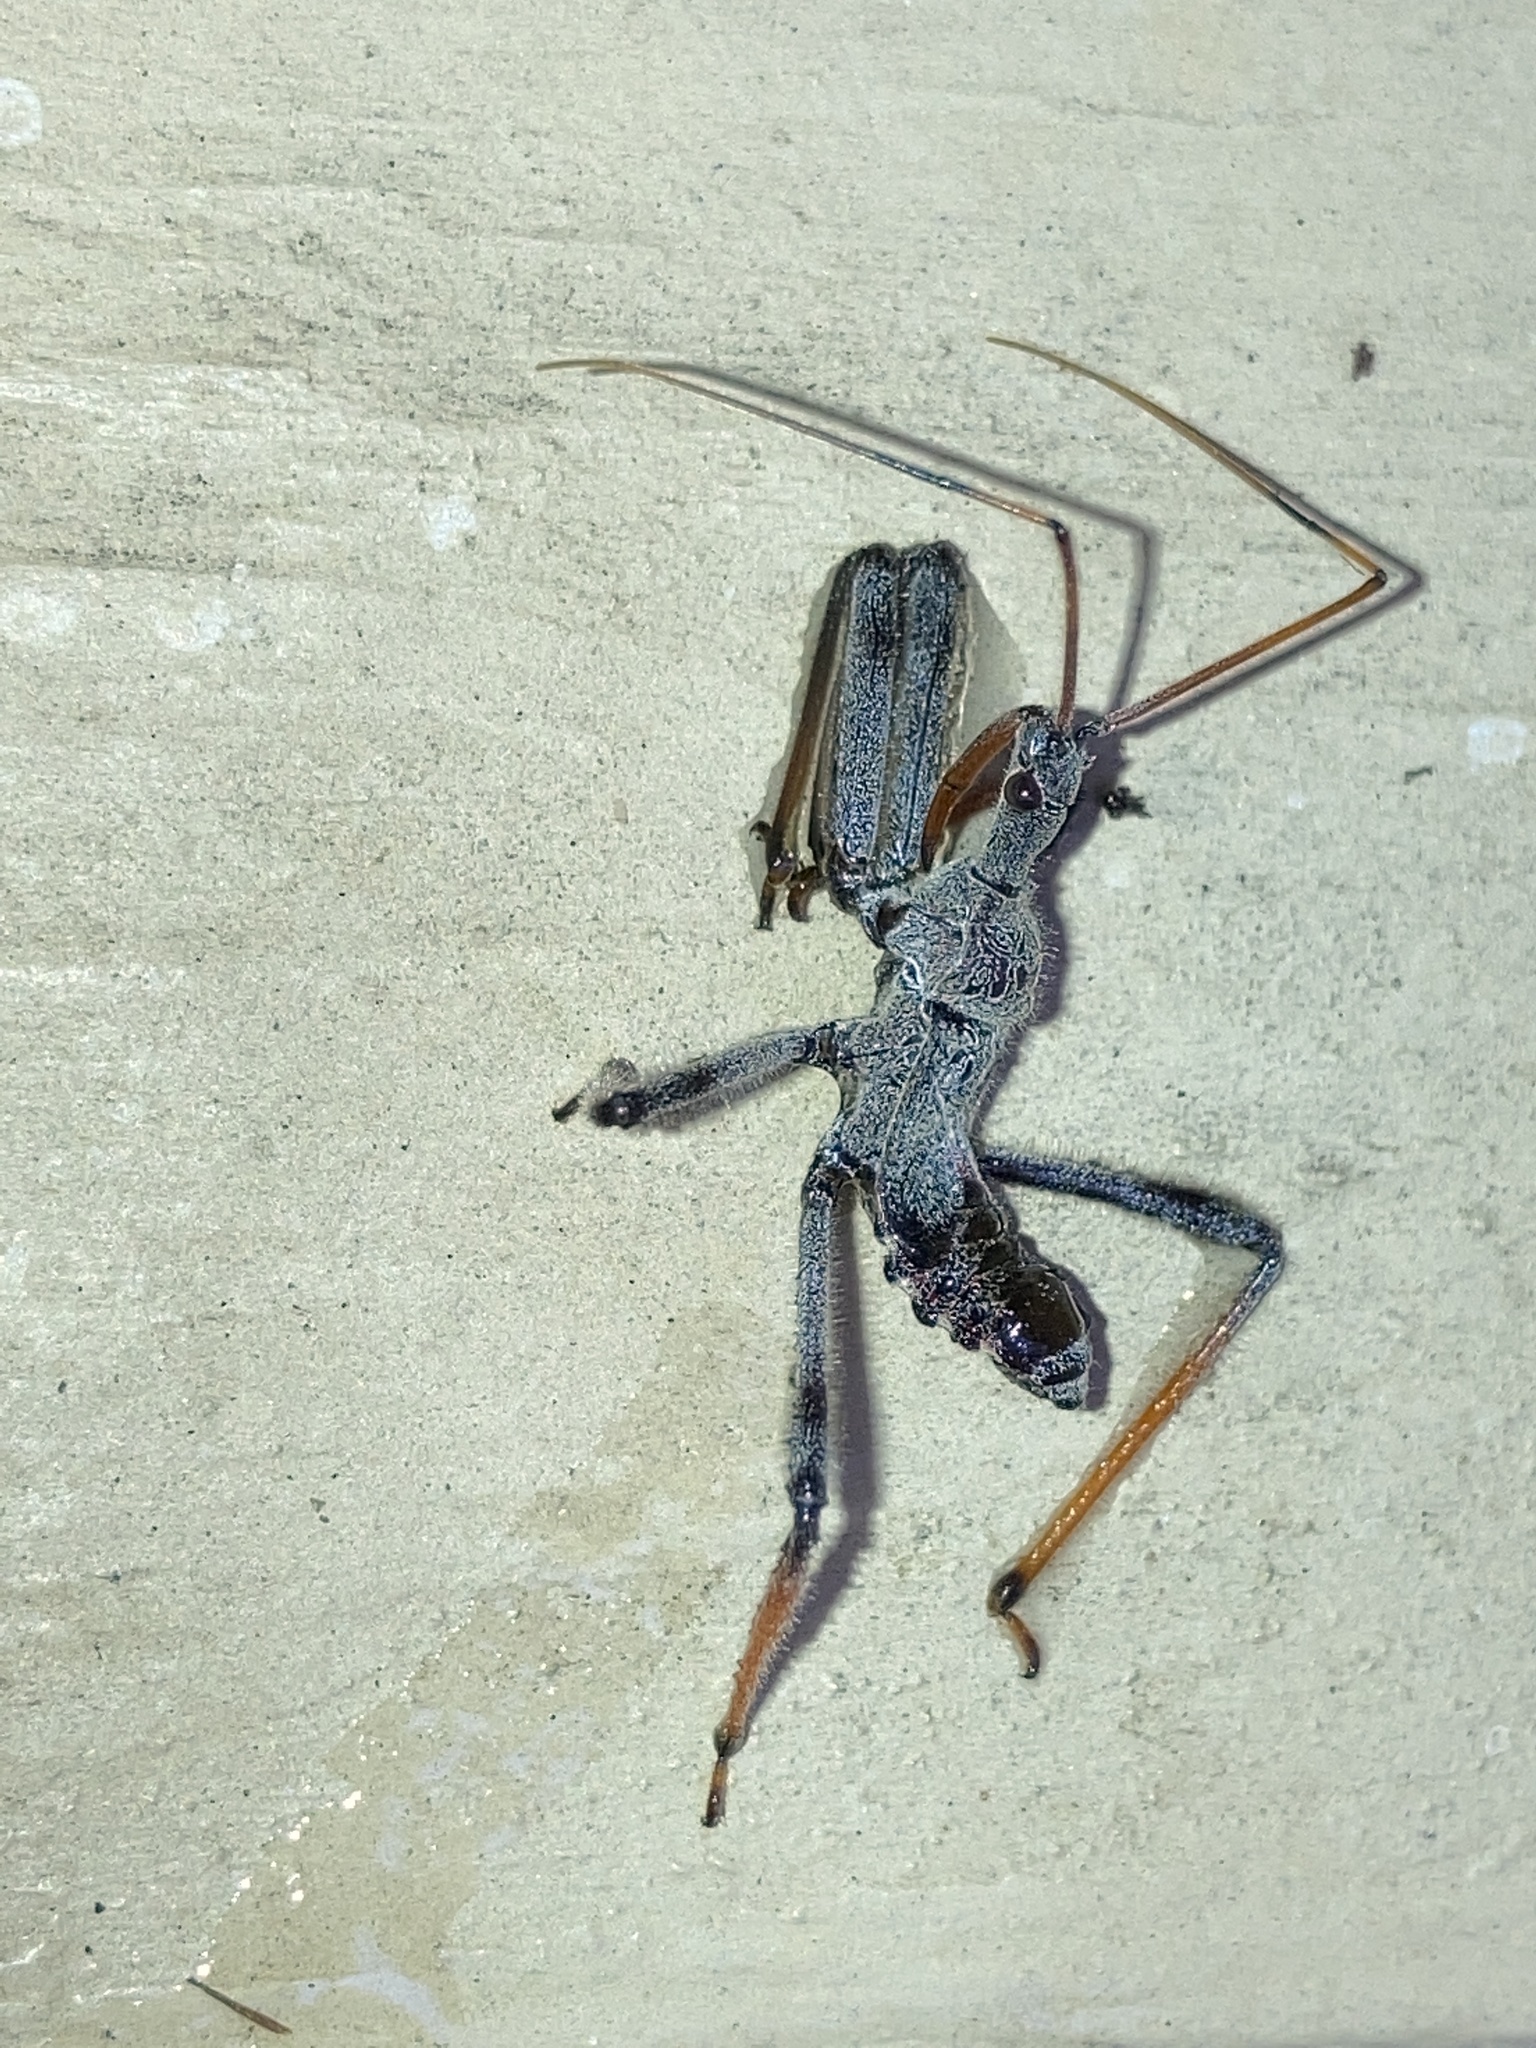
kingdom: Animalia
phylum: Arthropoda
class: Insecta
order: Hemiptera
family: Reduviidae
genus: Arilus
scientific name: Arilus cristatus
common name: North american wheel bug
